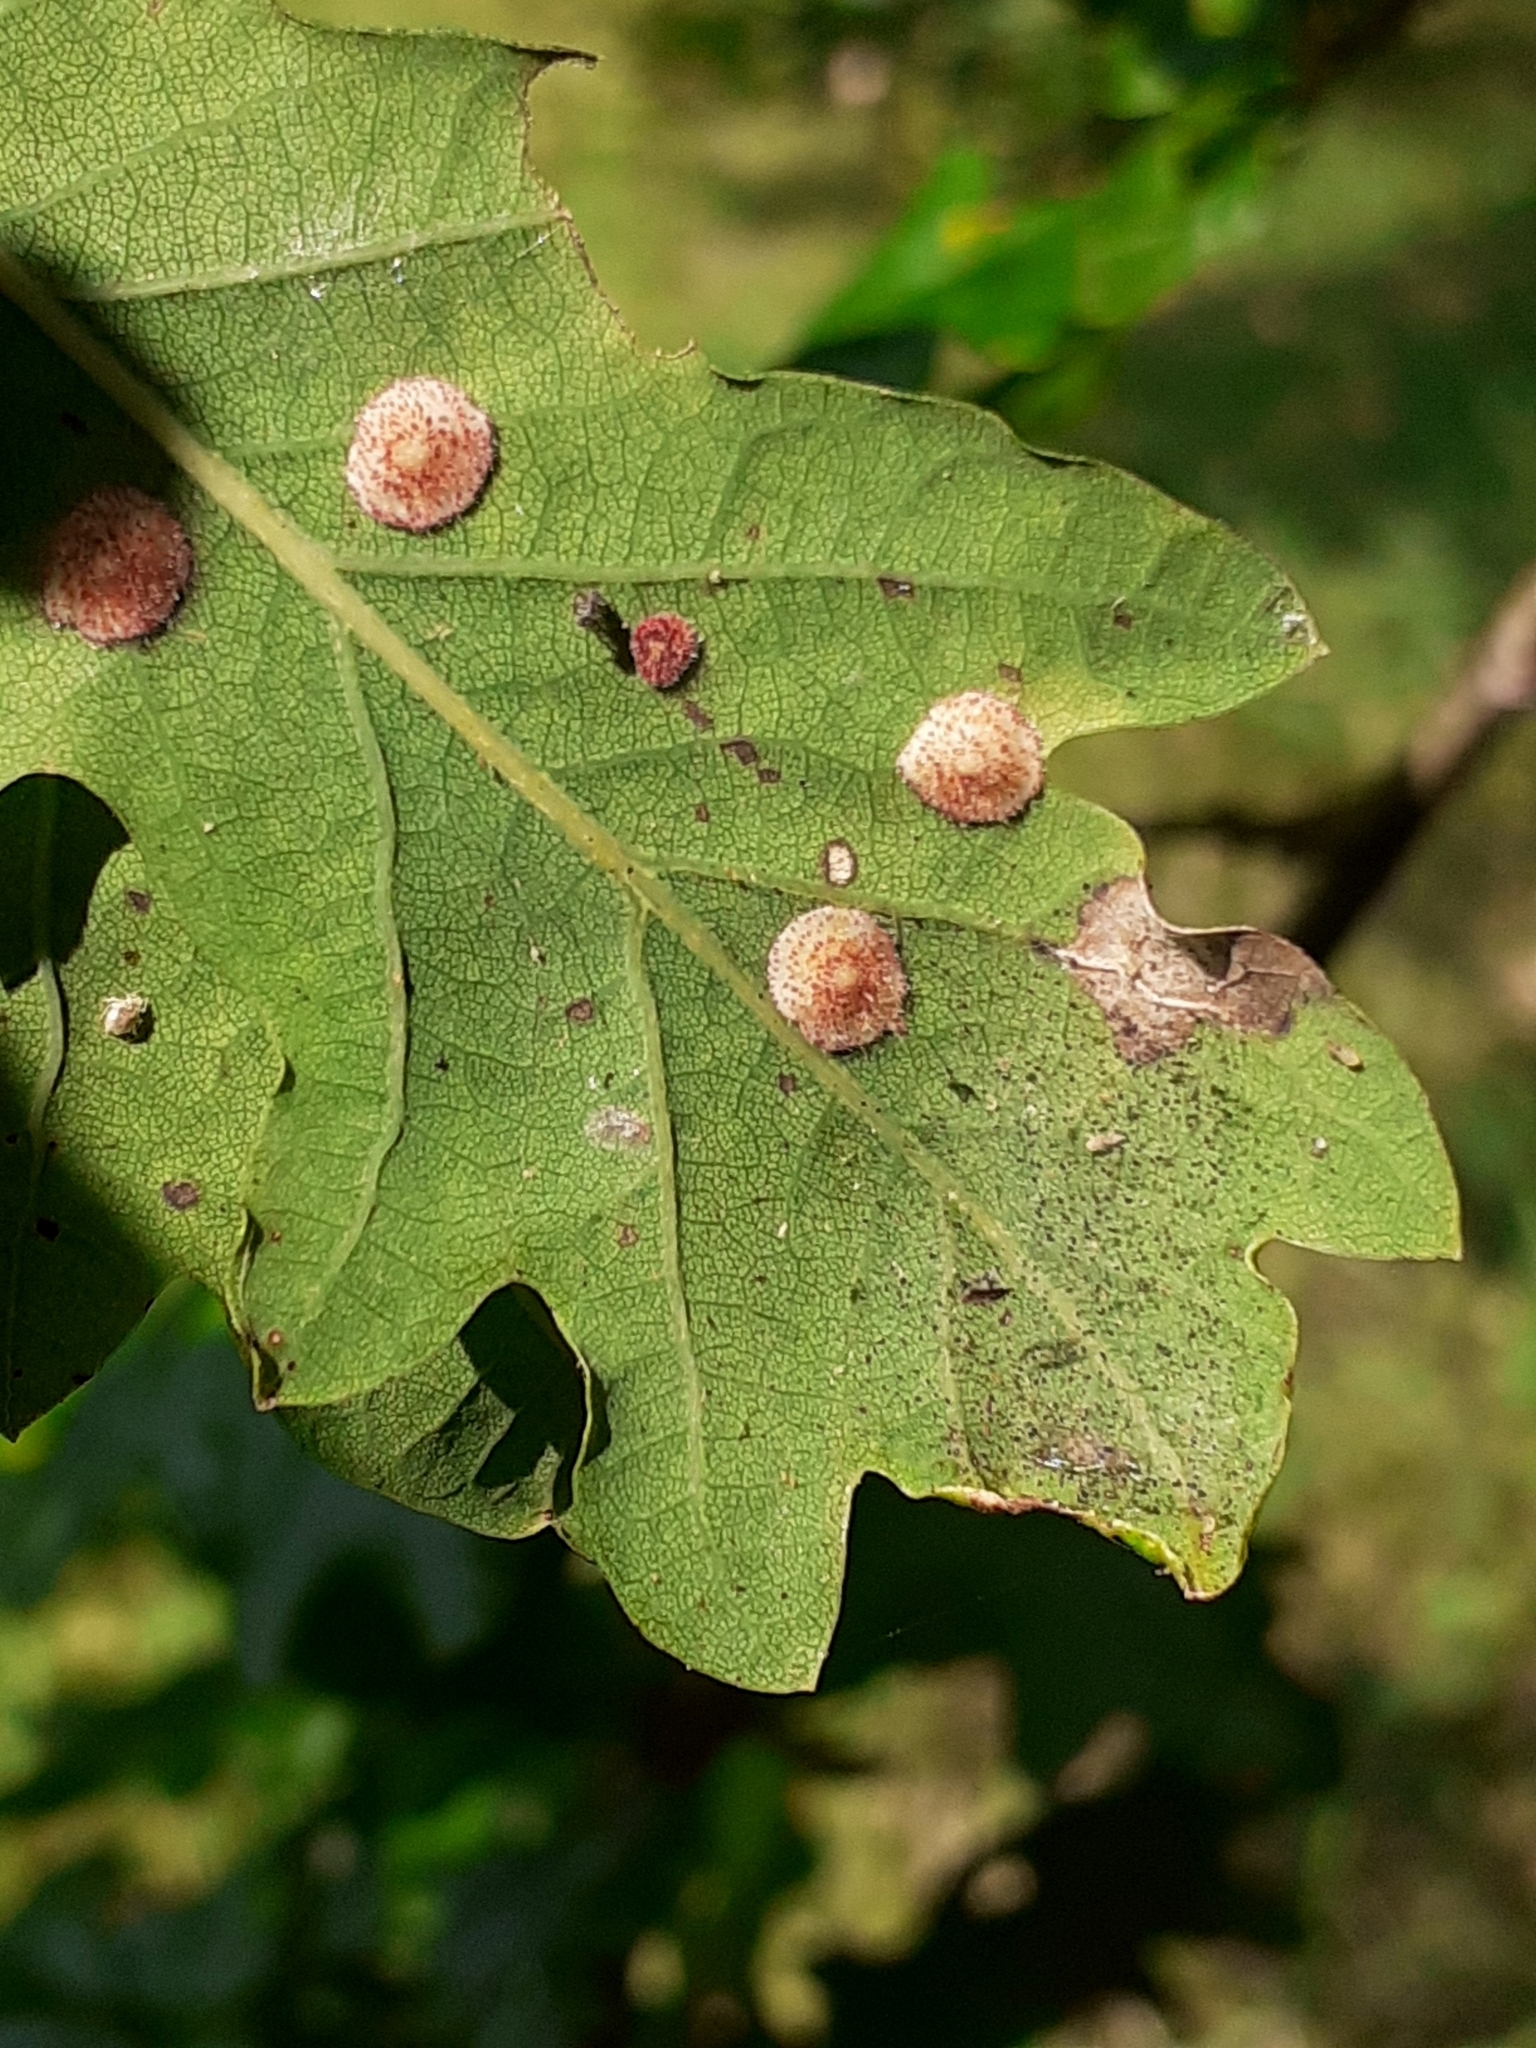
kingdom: Animalia
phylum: Arthropoda
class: Insecta
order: Hymenoptera
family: Cynipidae
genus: Neuroterus
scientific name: Neuroterus quercusbaccarum
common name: Common spangle gall
